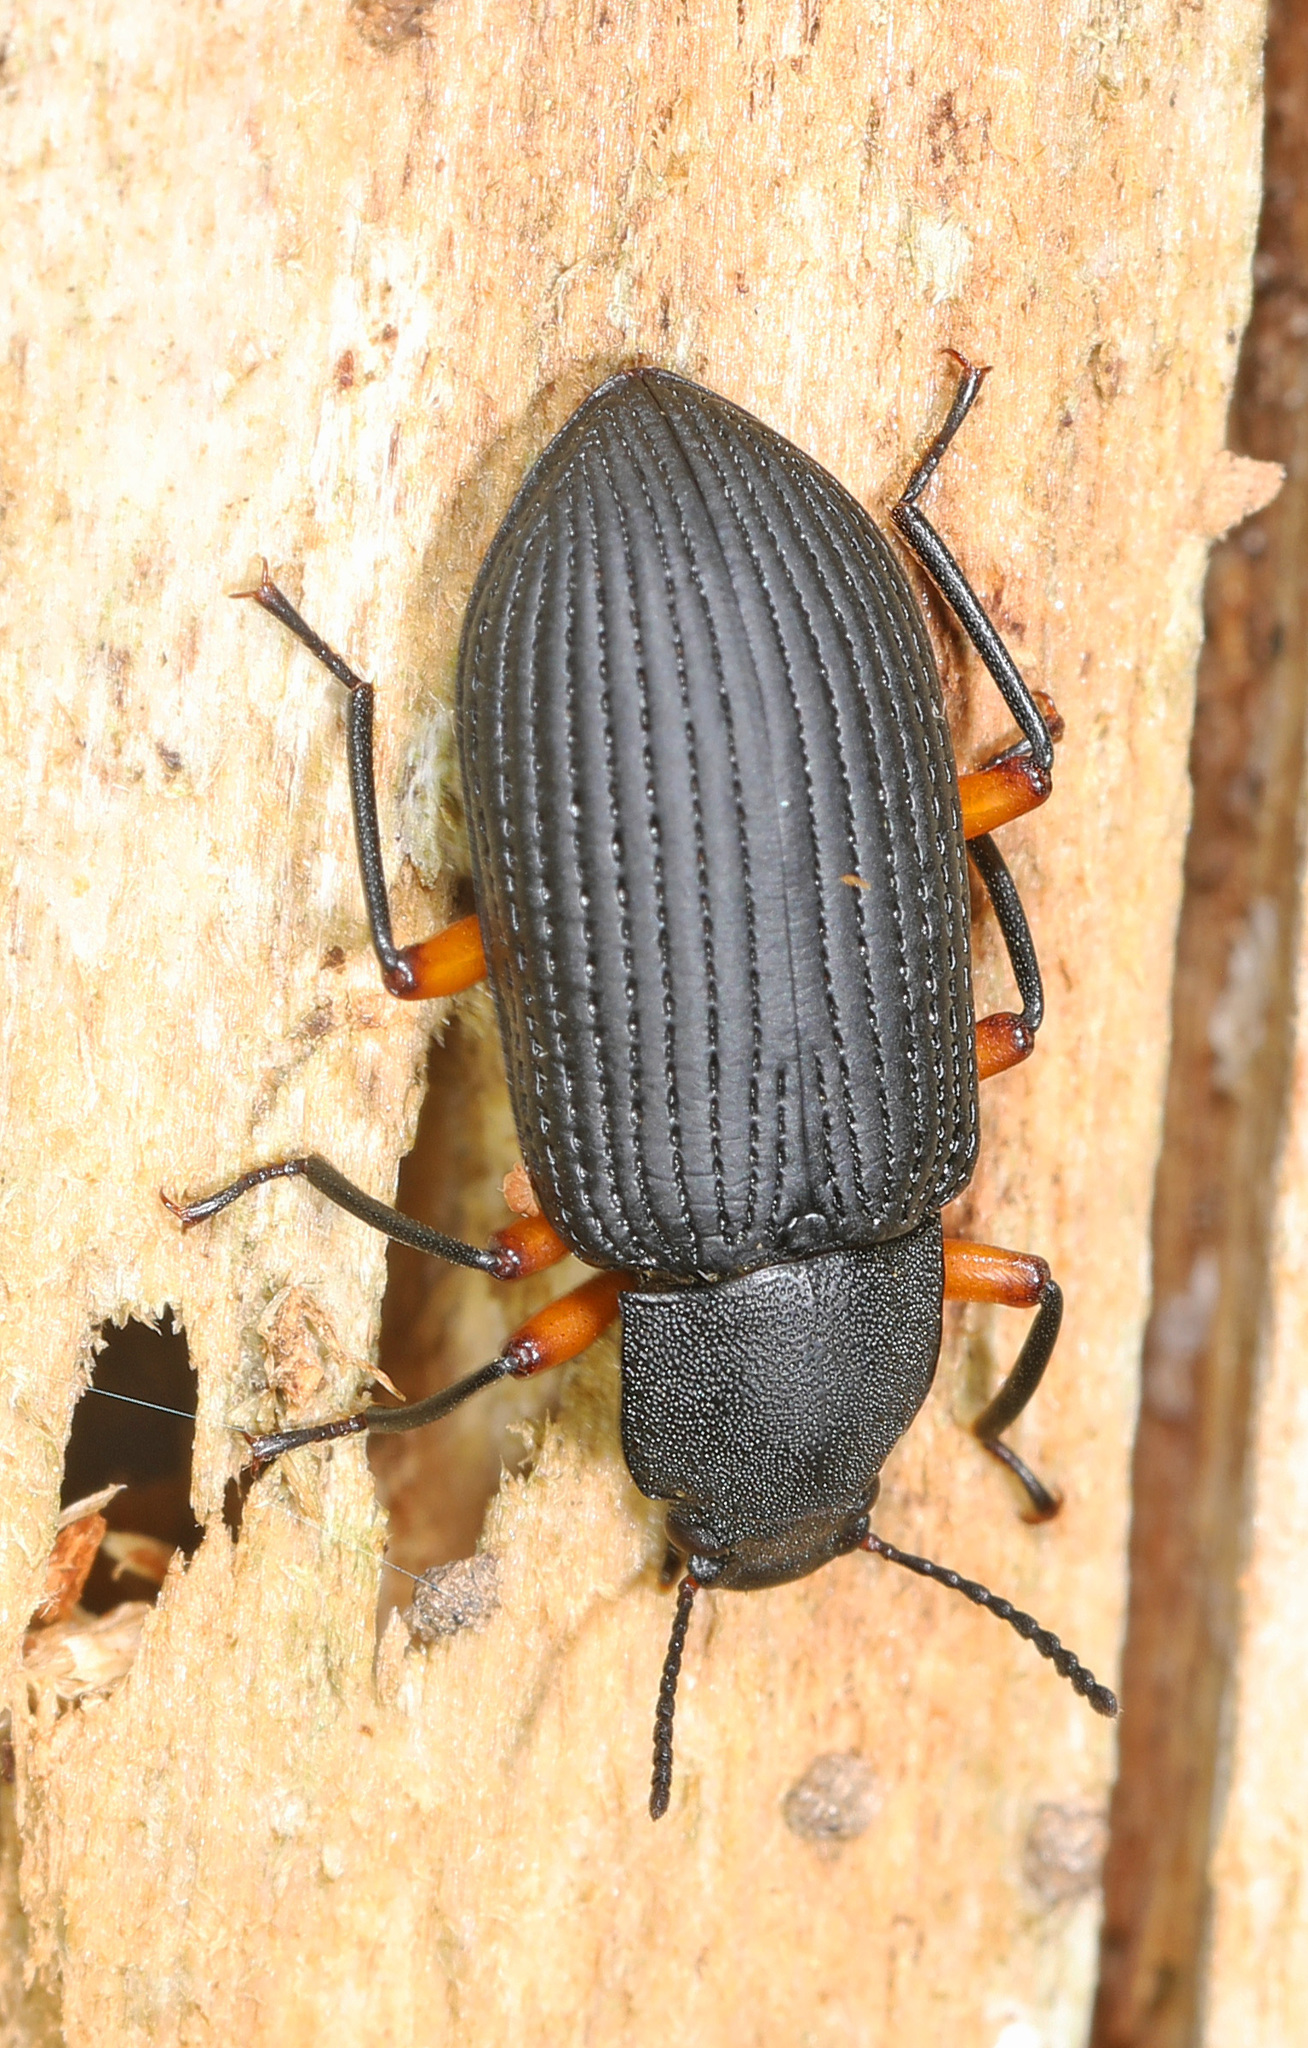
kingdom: Animalia
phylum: Arthropoda
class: Insecta
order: Coleoptera
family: Tenebrionidae
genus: Haplandrus
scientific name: Haplandrus fulvipes
